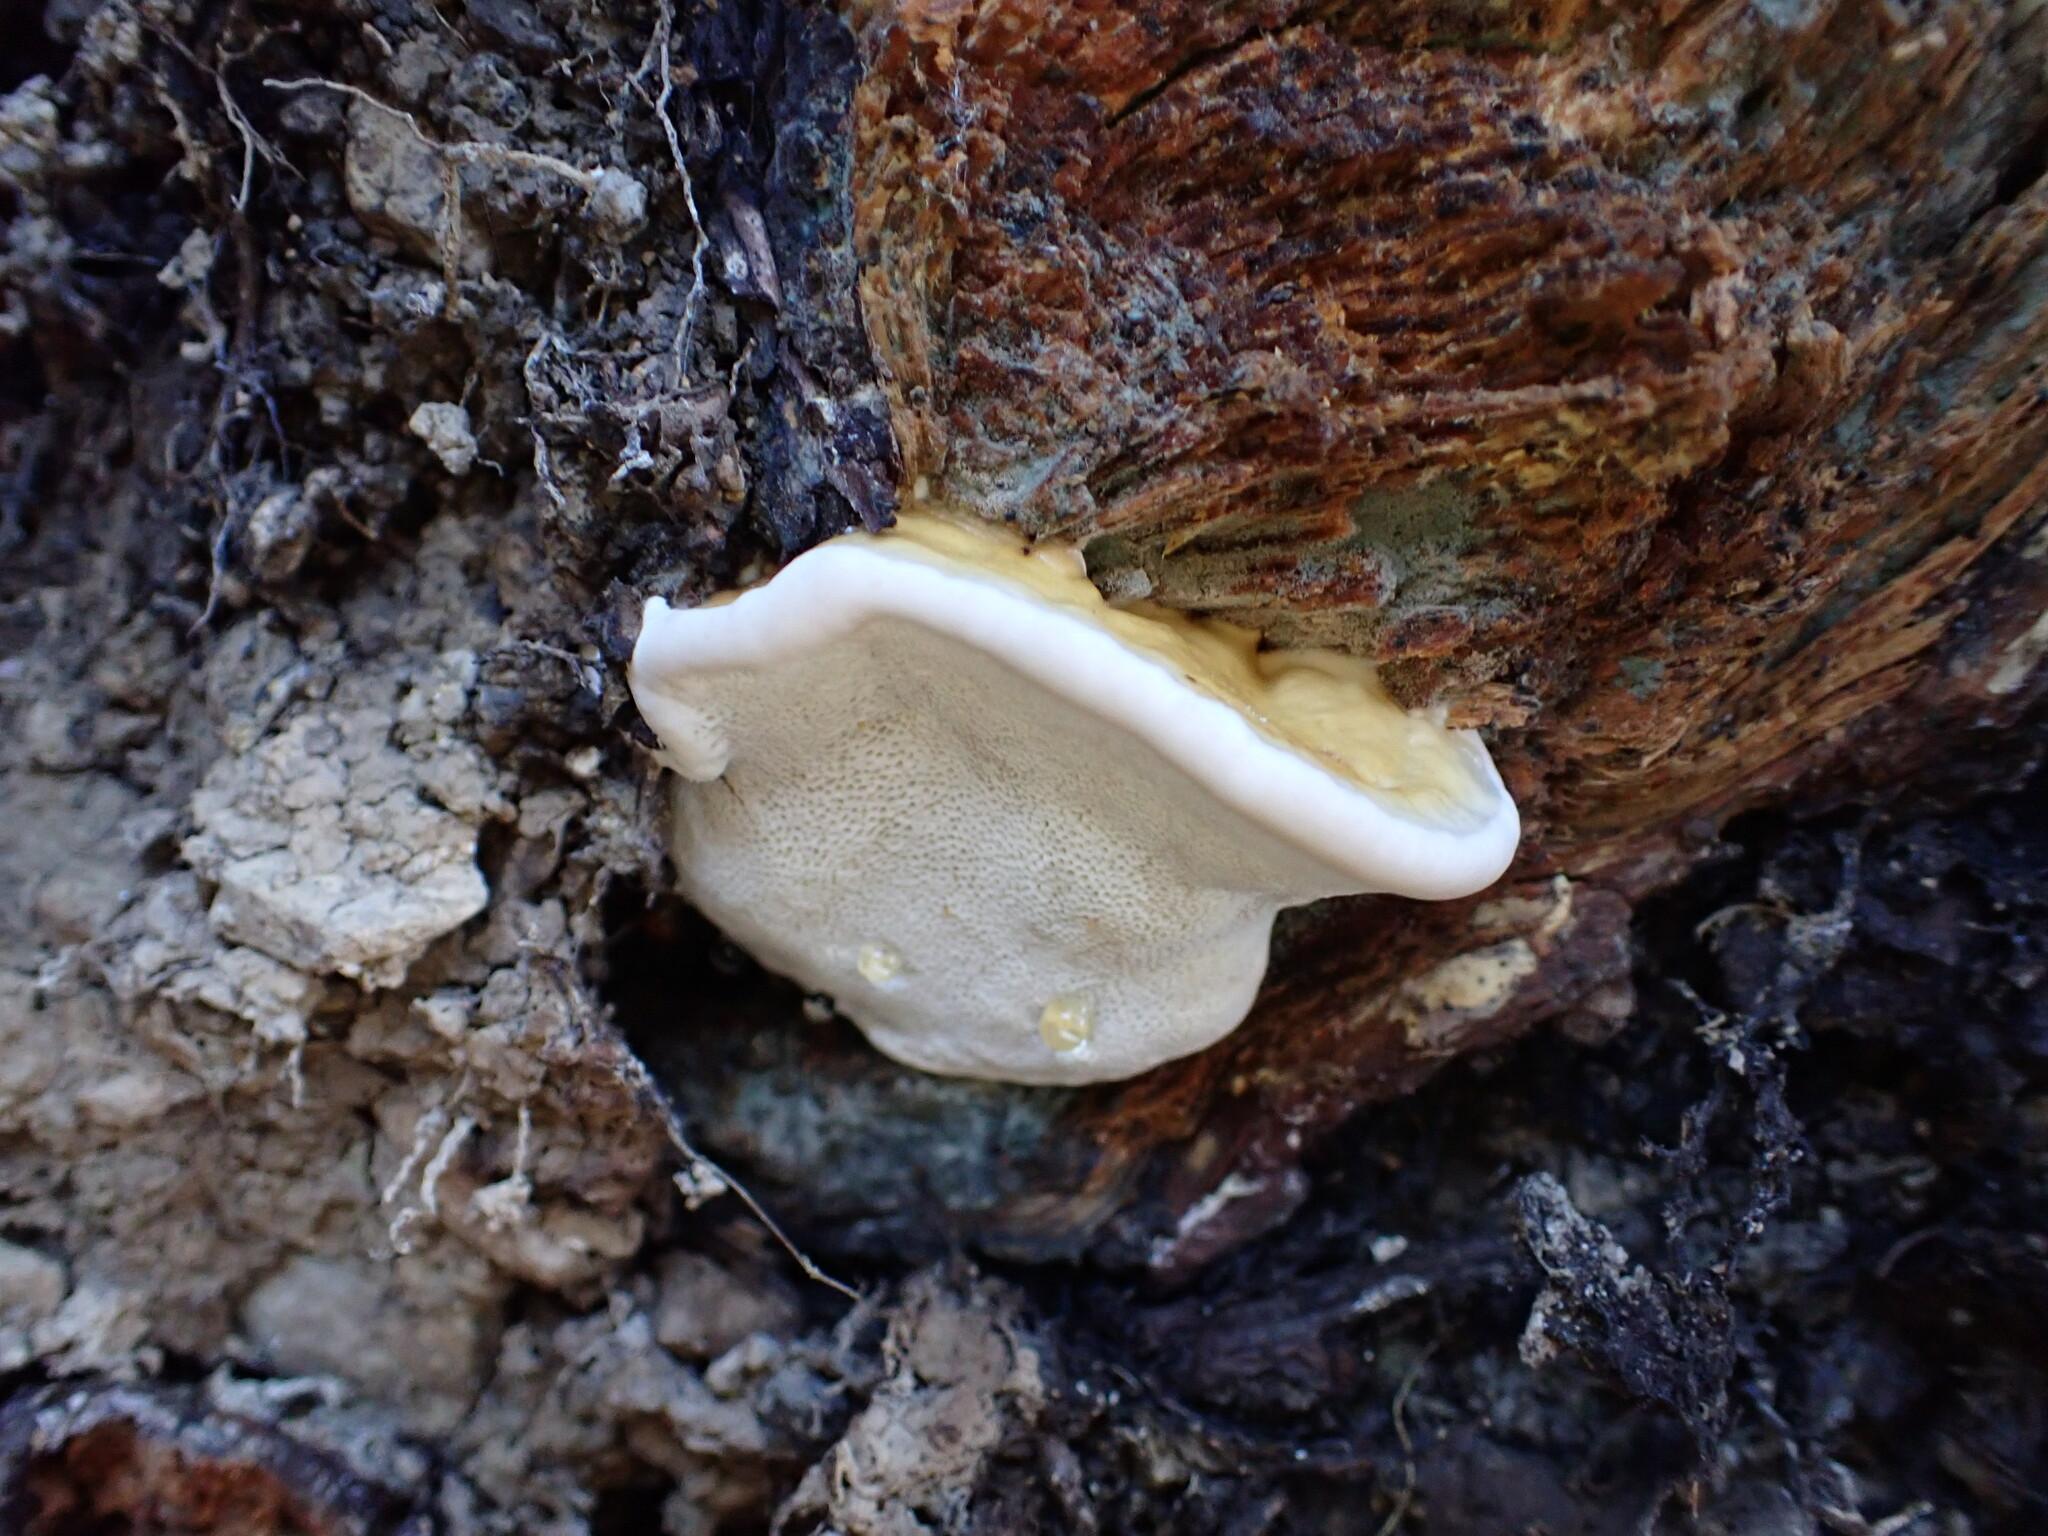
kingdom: Fungi
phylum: Basidiomycota
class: Agaricomycetes
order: Polyporales
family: Fomitopsidaceae
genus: Fomitopsis
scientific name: Fomitopsis pinicola
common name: Red-belted bracket
